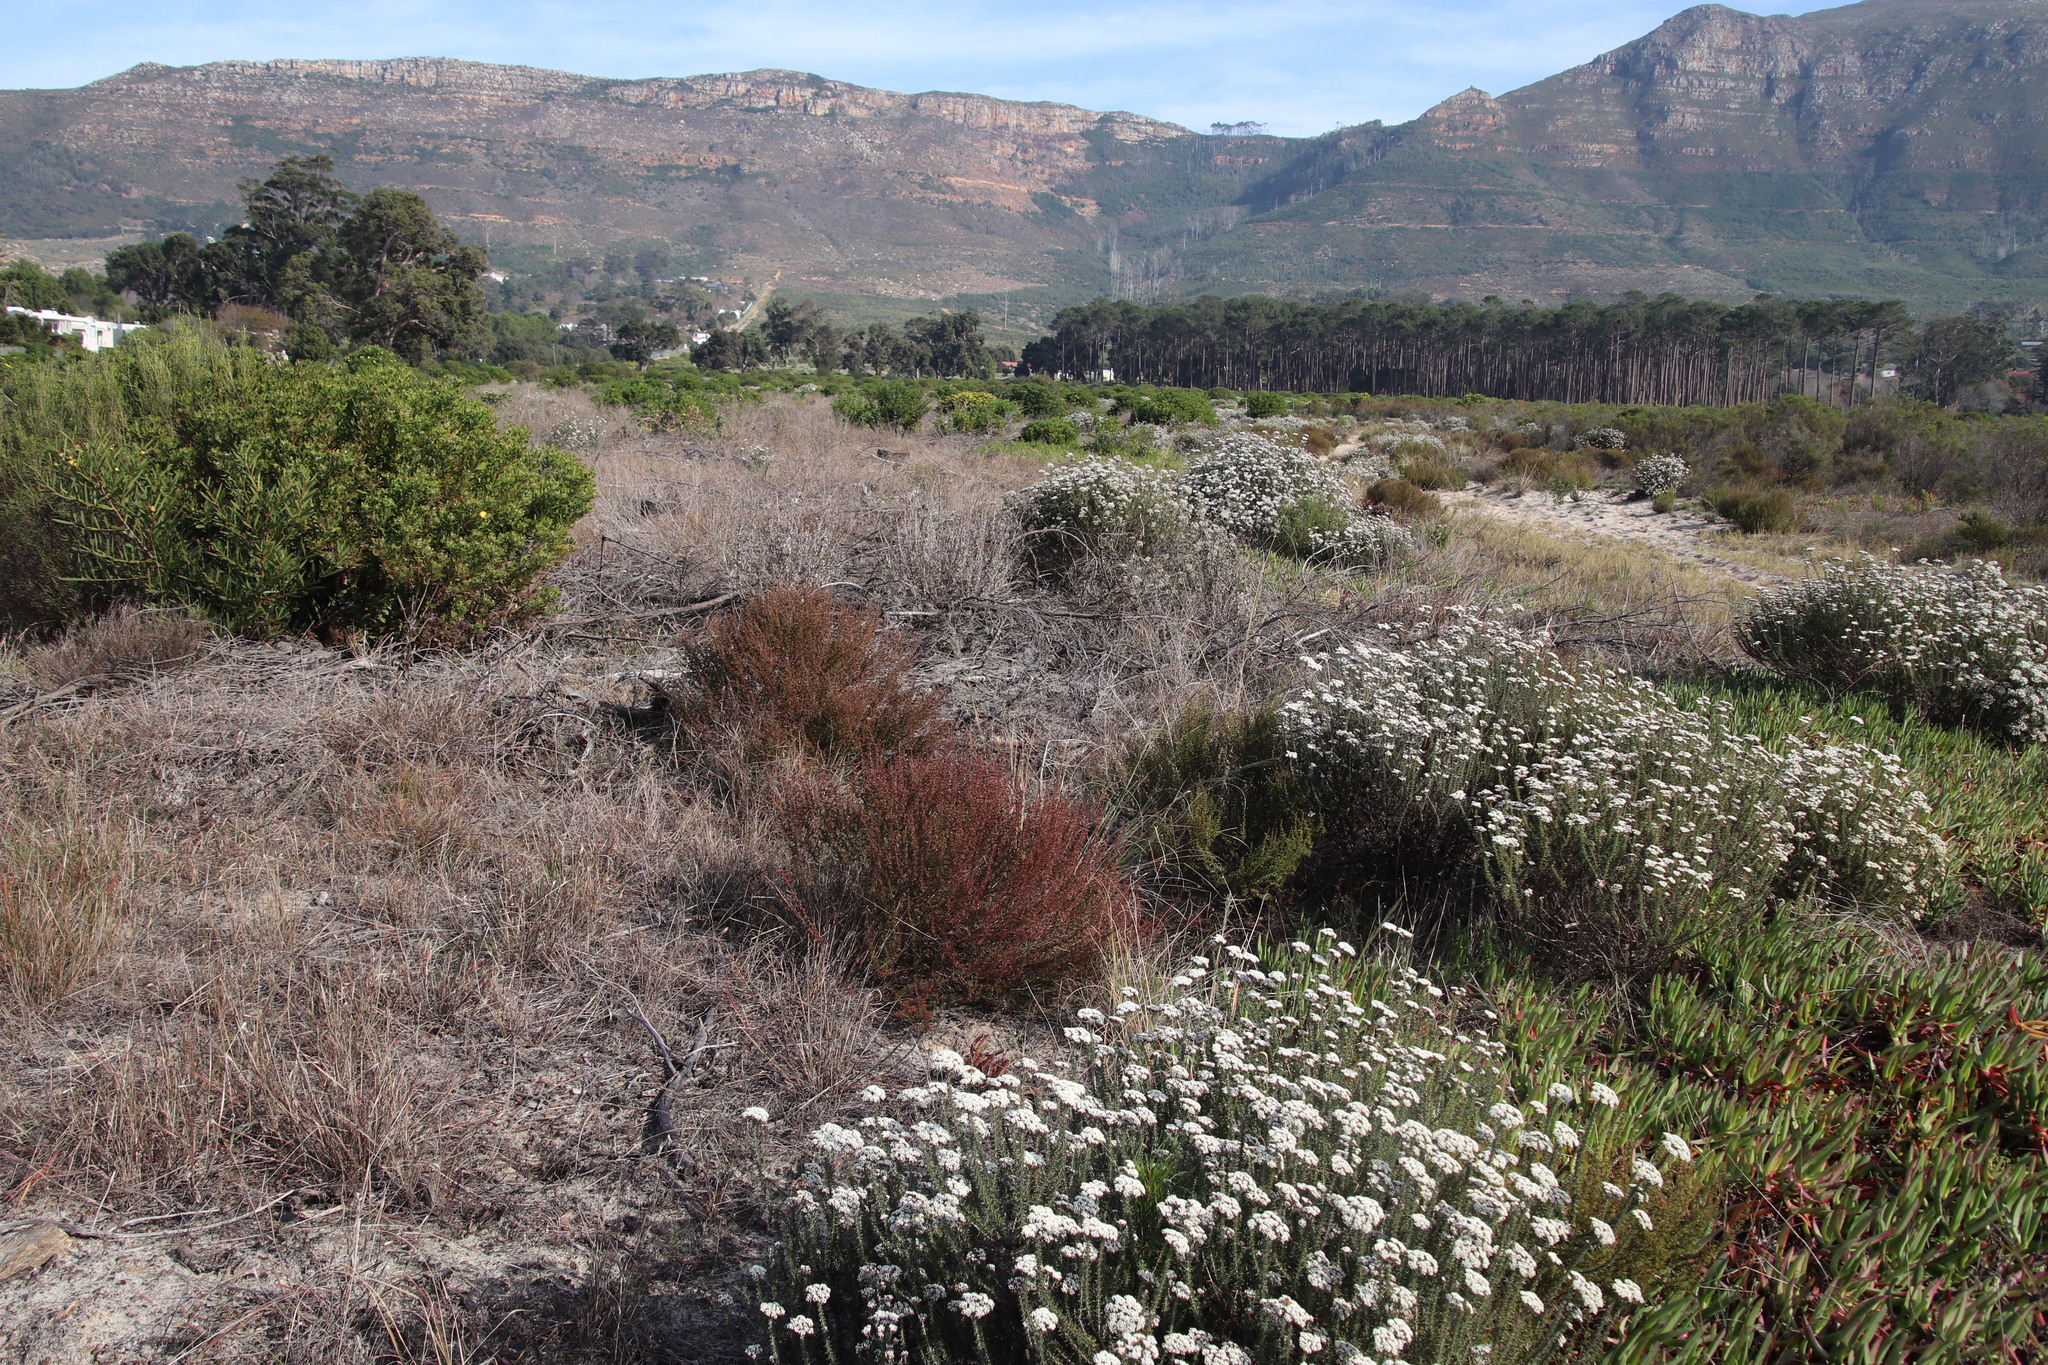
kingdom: Plantae
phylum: Tracheophyta
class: Magnoliopsida
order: Rosales
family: Rosaceae
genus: Cliffortia
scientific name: Cliffortia falcata
